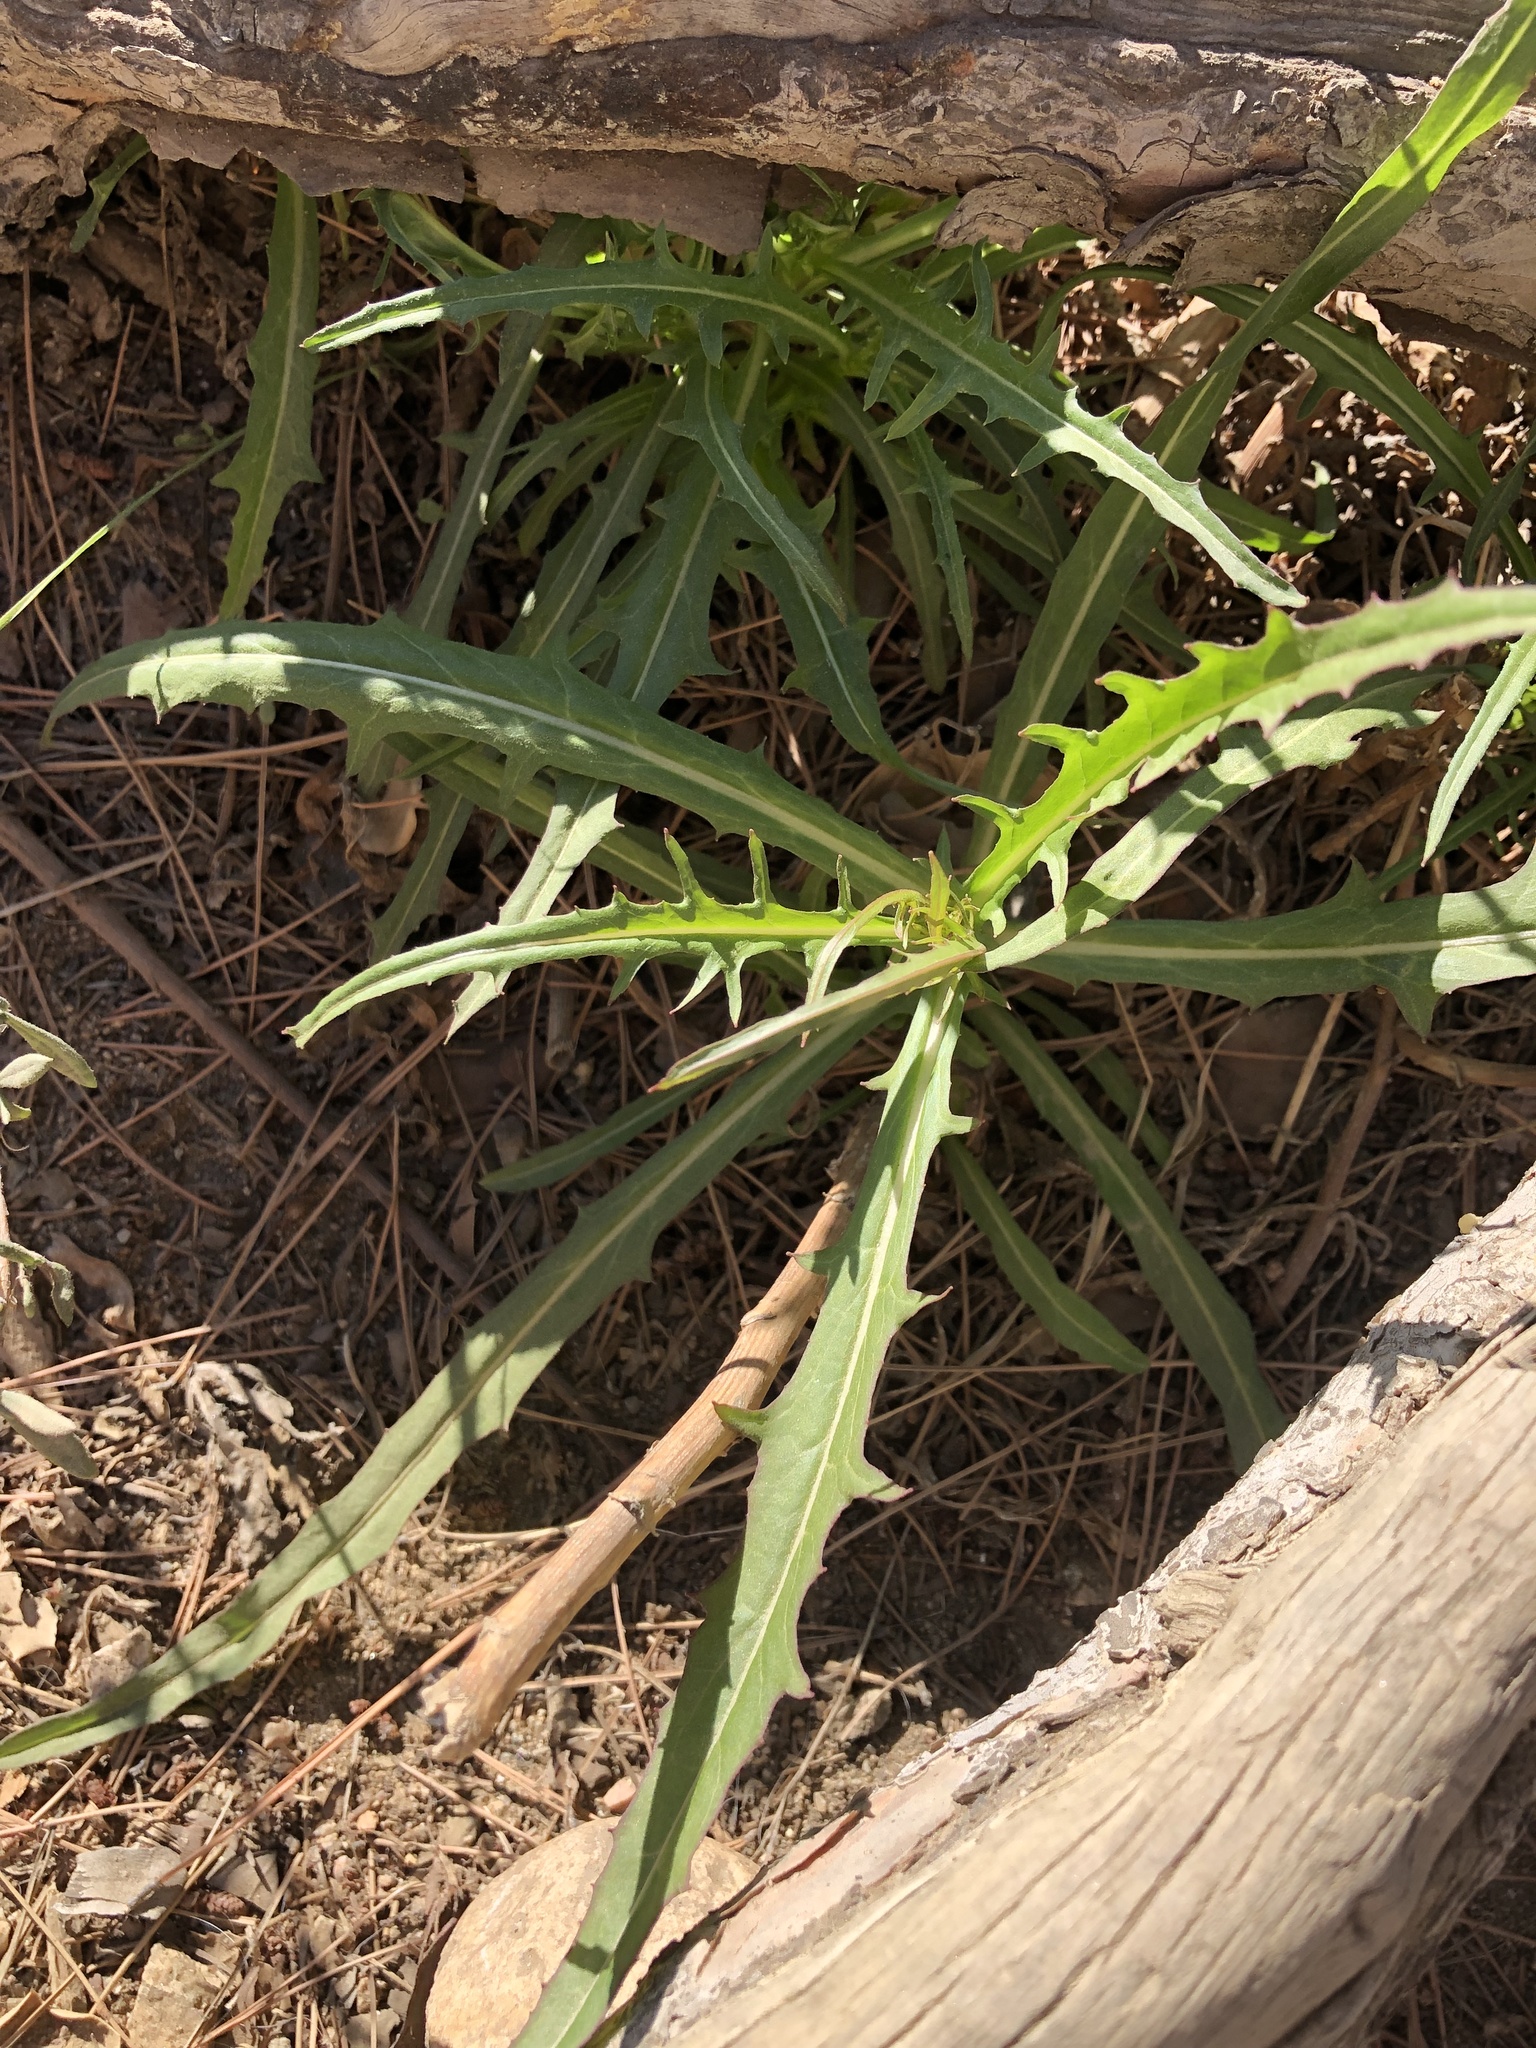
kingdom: Plantae
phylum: Tracheophyta
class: Magnoliopsida
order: Asterales
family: Asteraceae
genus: Malacothrix
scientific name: Malacothrix saxatilis
